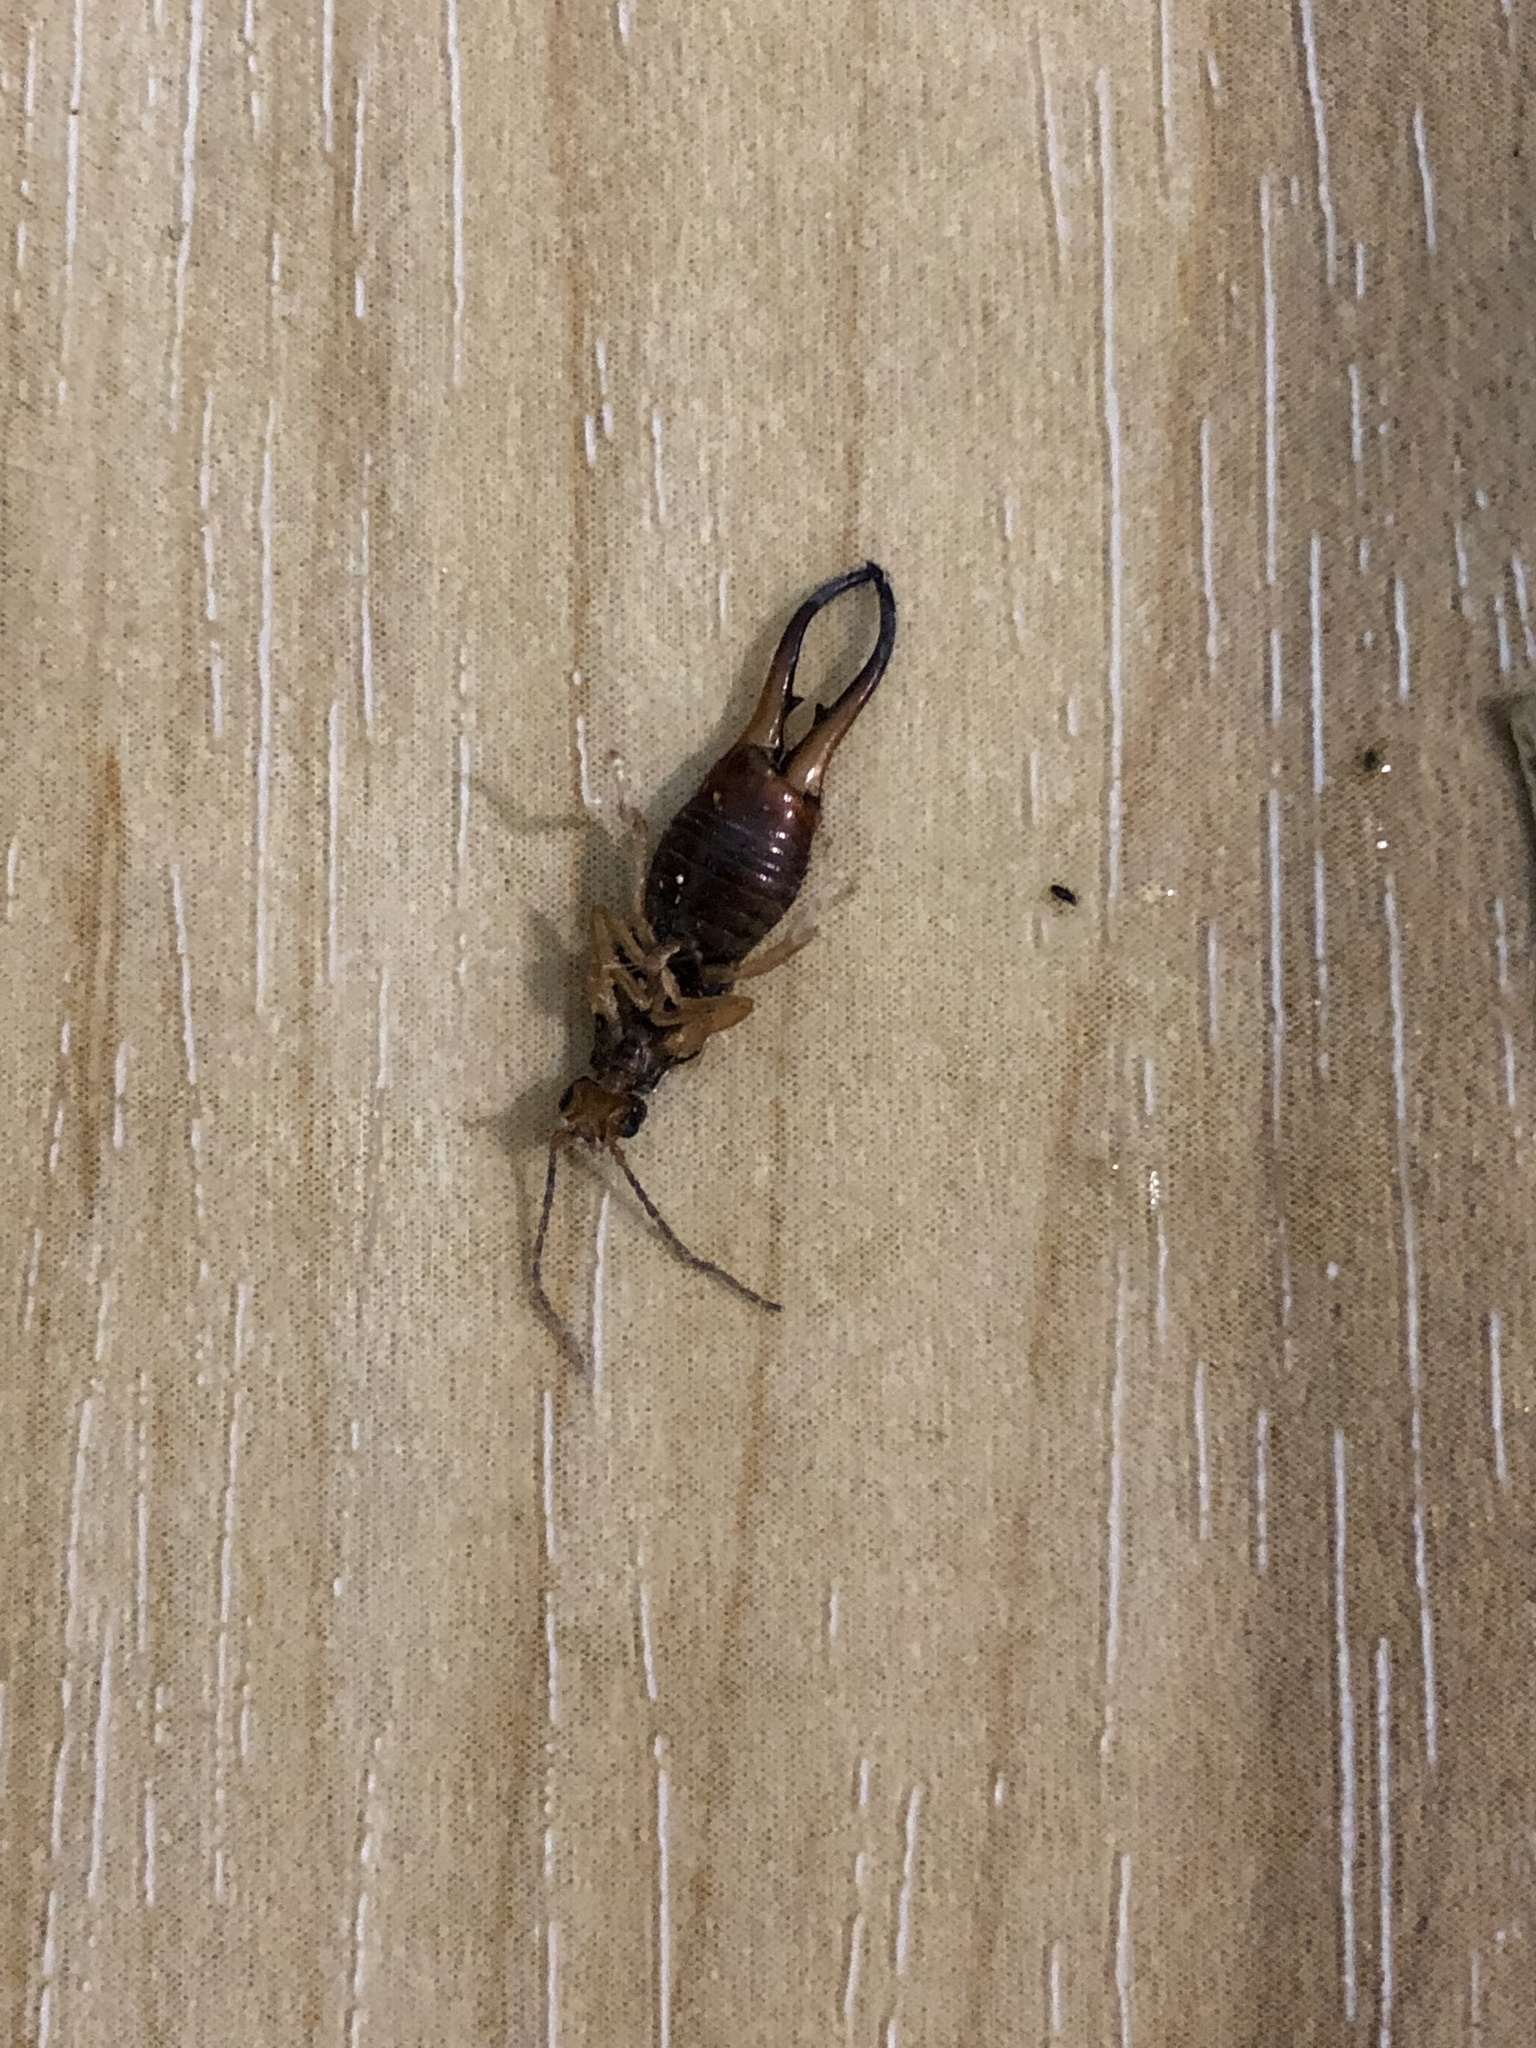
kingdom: Animalia
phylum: Arthropoda
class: Insecta
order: Dermaptera
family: Forficulidae
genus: Forficula
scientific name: Forficula
